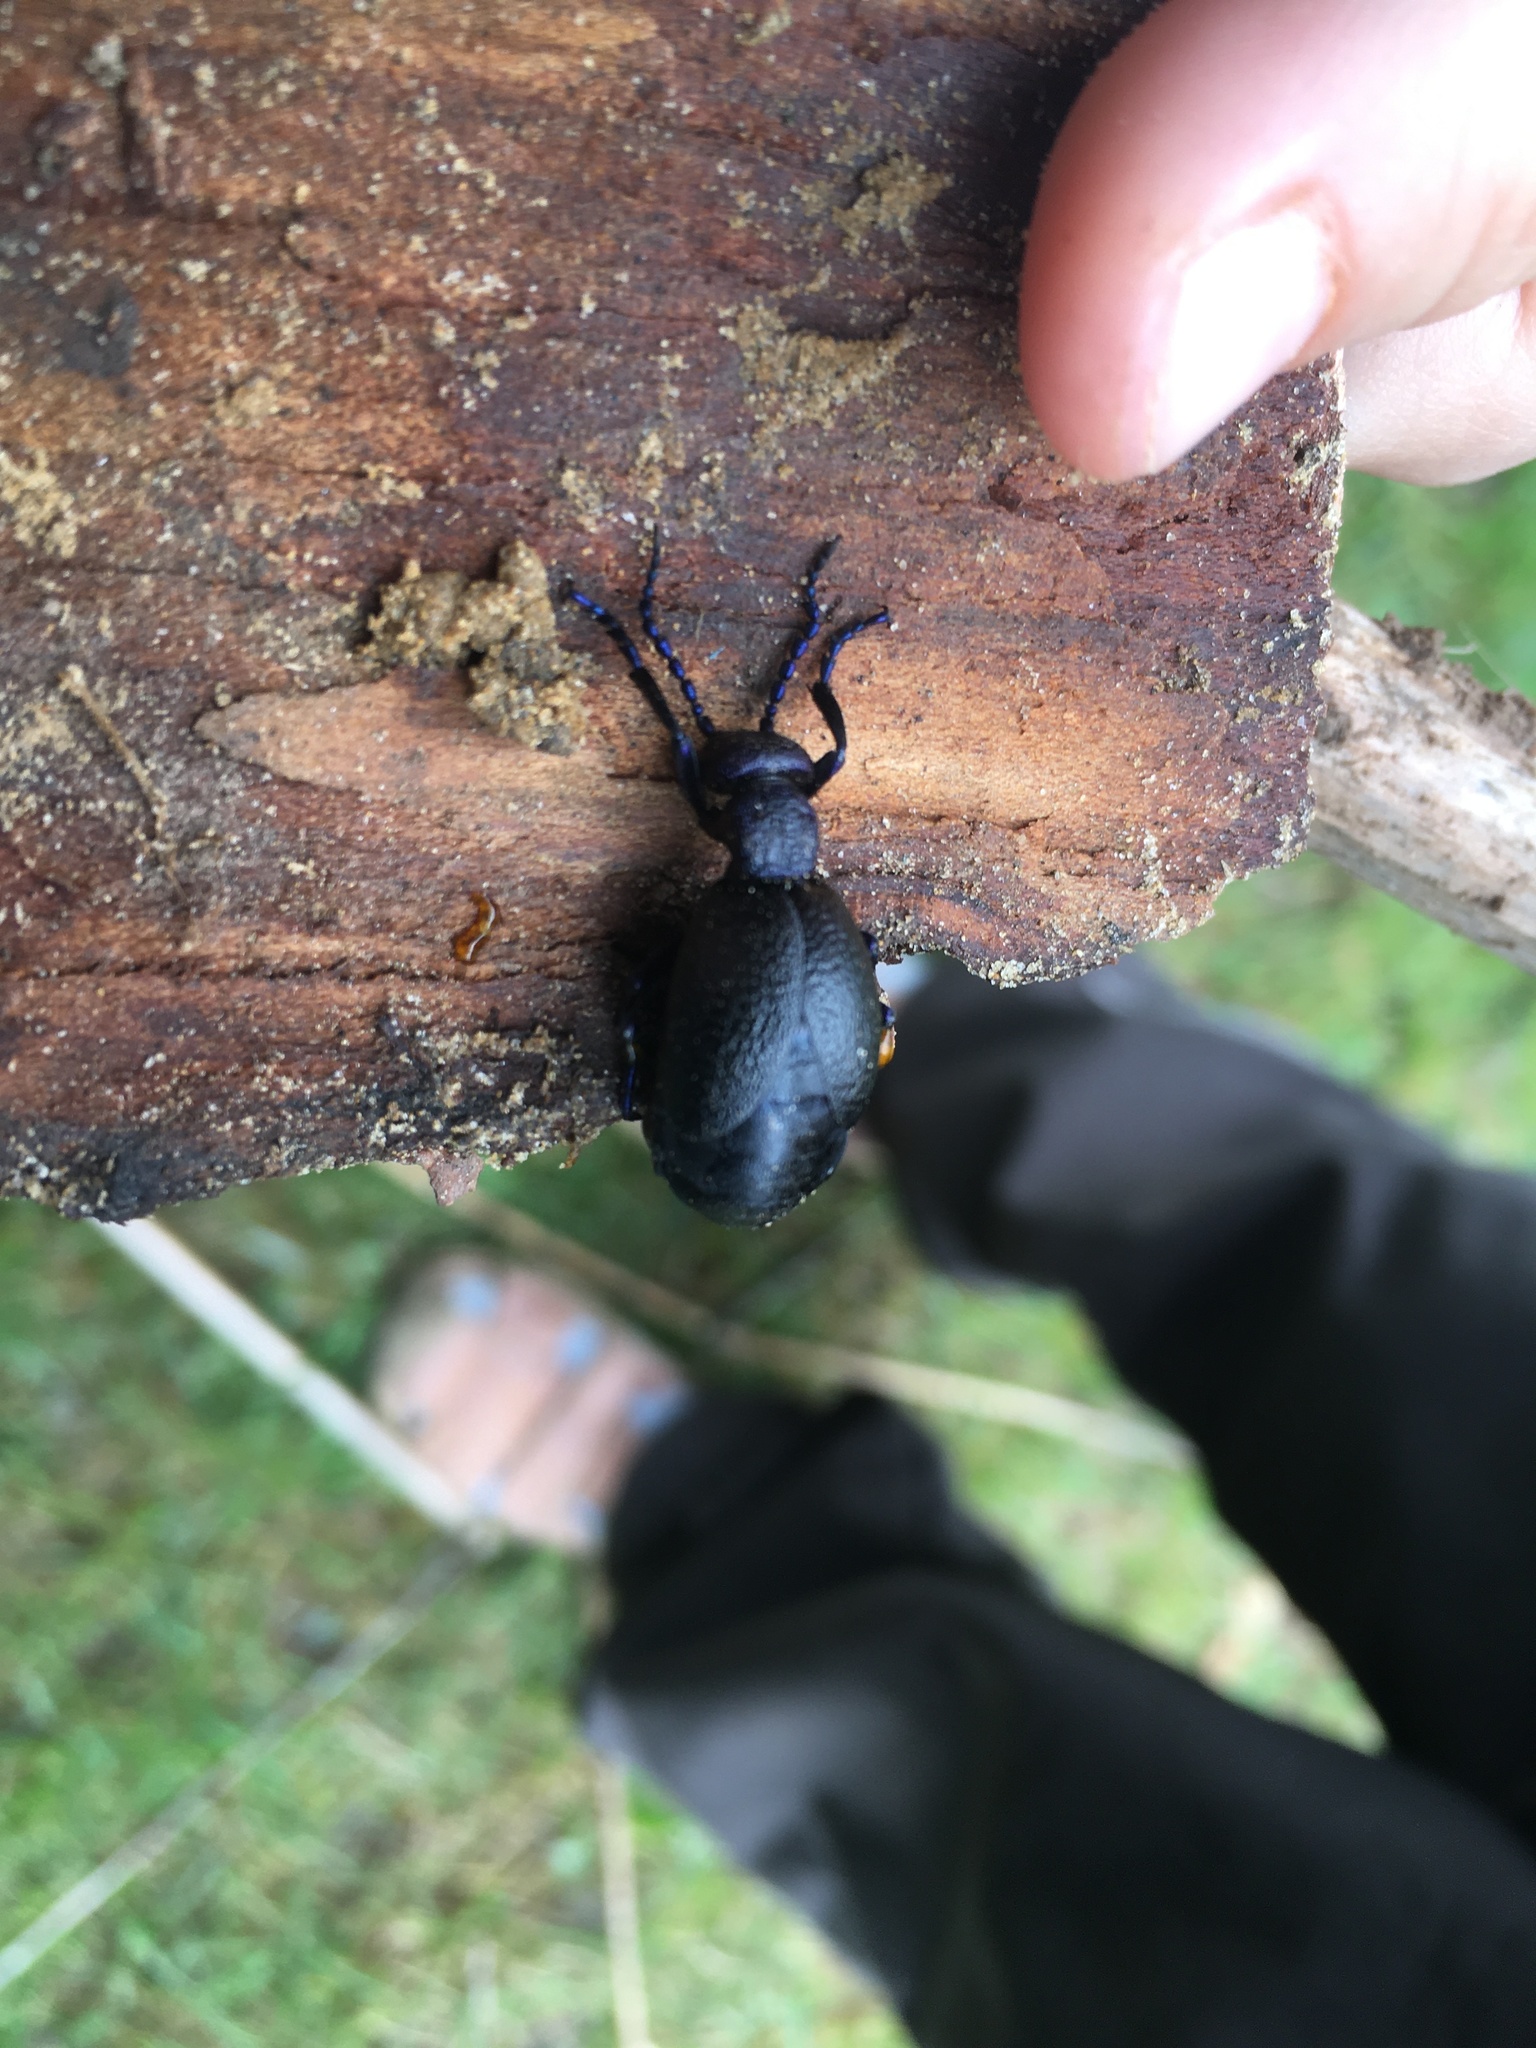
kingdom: Animalia
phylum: Arthropoda
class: Insecta
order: Coleoptera
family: Meloidae
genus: Meloe
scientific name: Meloe proscarabaeus
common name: Black oil-beetle
